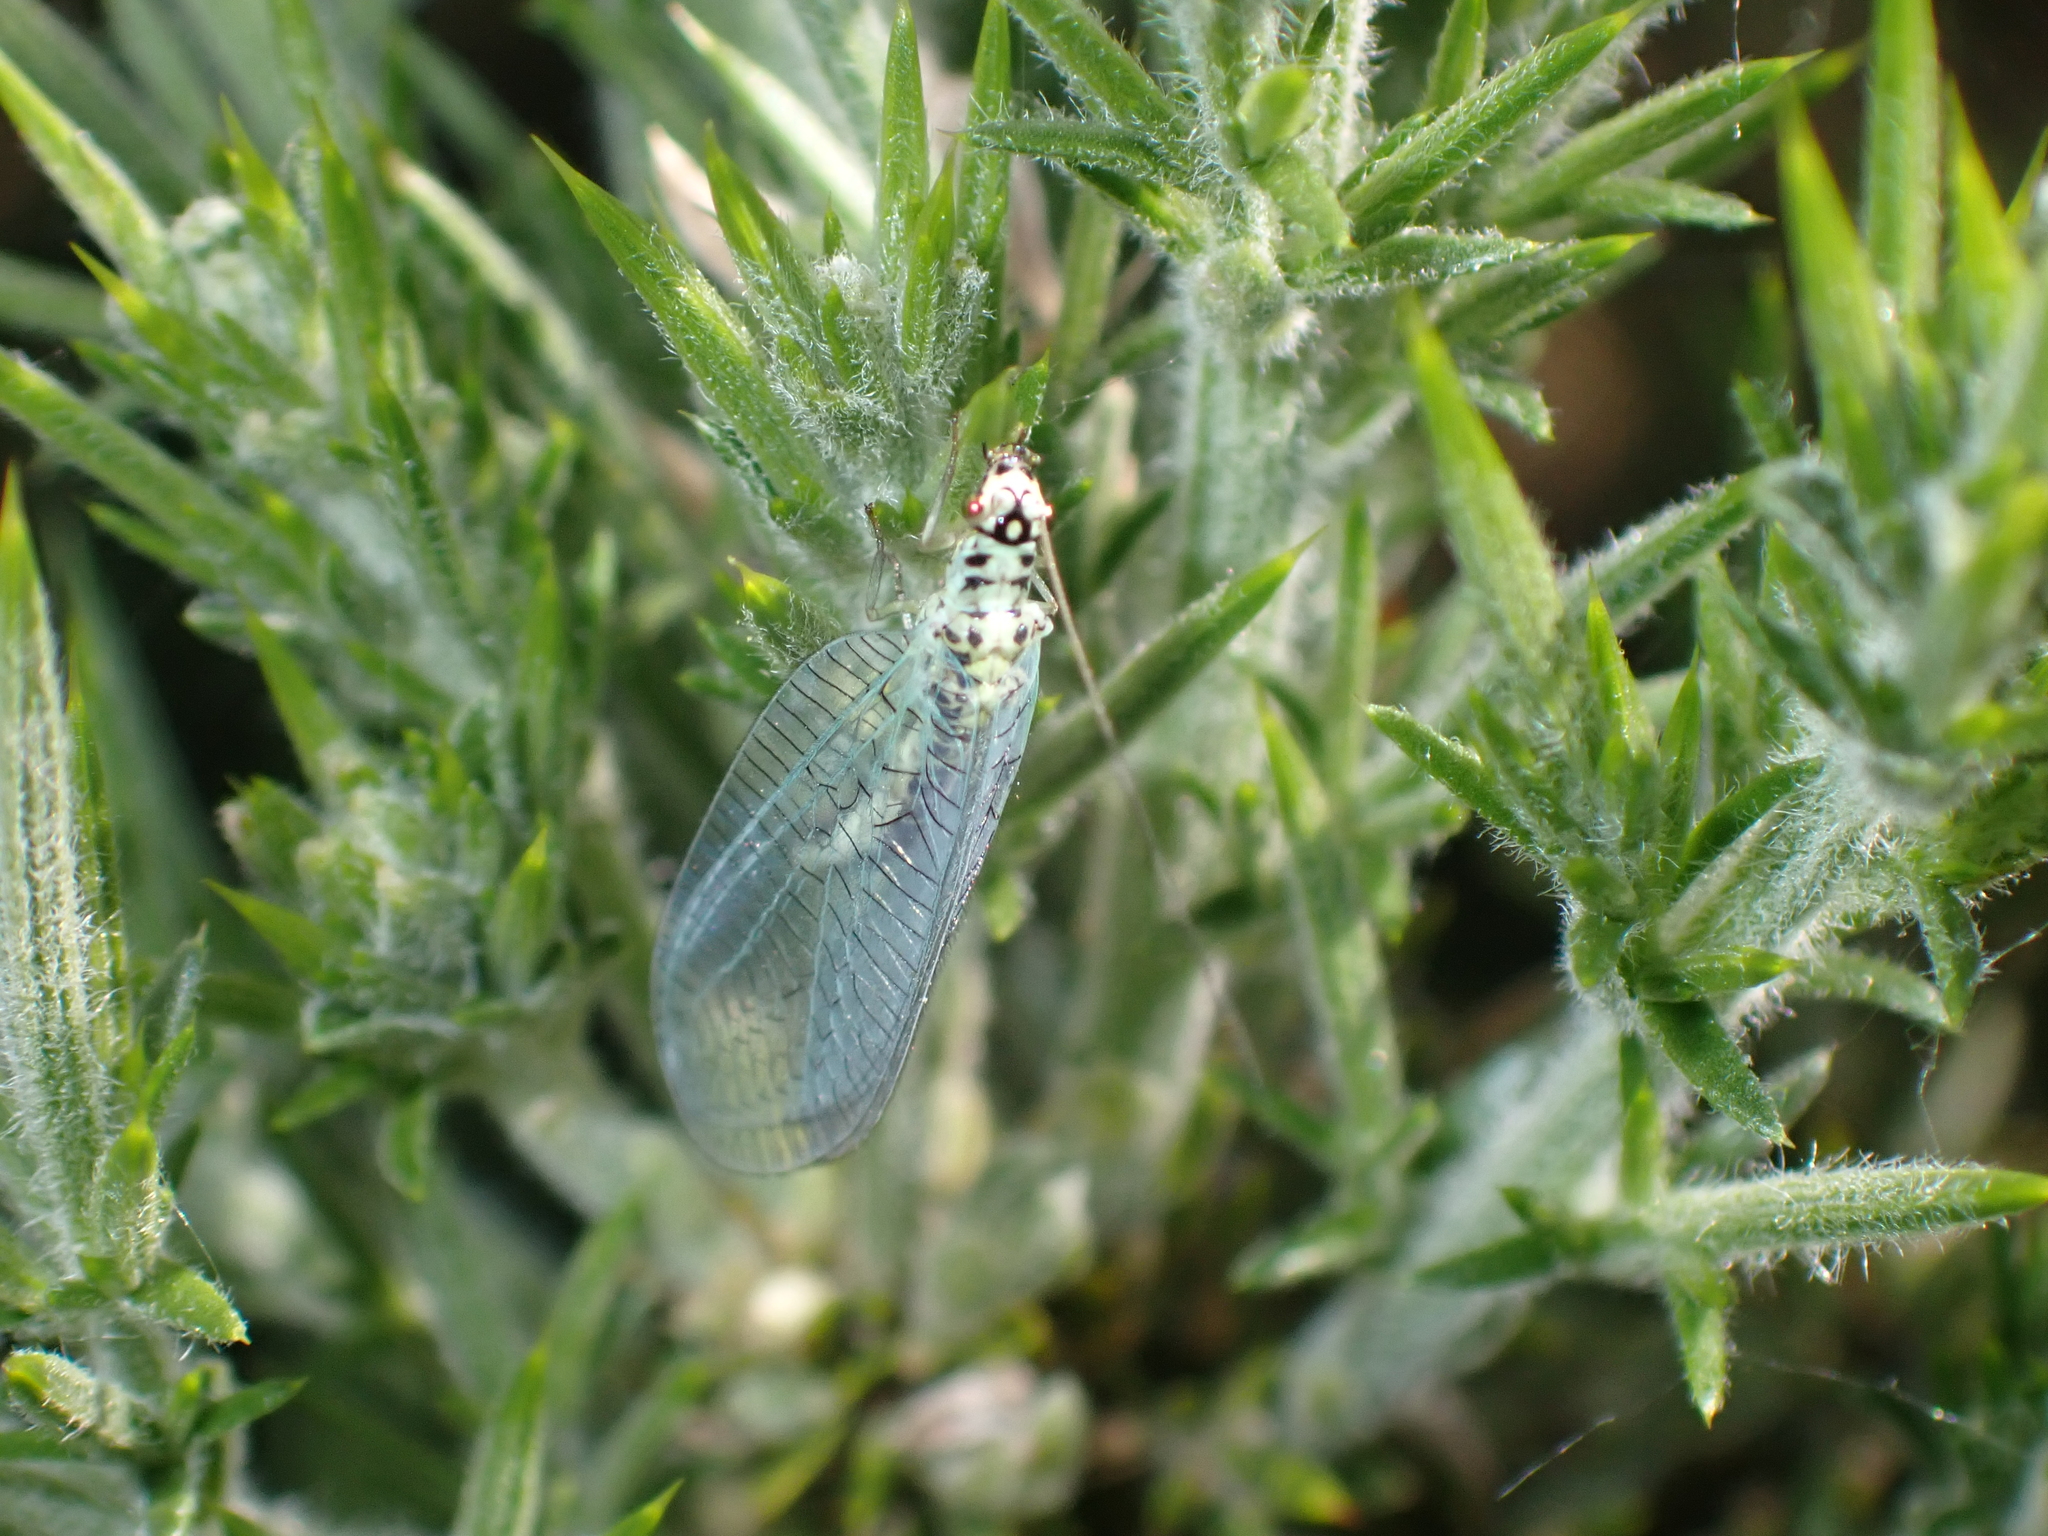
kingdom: Animalia
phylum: Arthropoda
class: Insecta
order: Neuroptera
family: Chrysopidae
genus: Chrysopa
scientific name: Chrysopa perla
